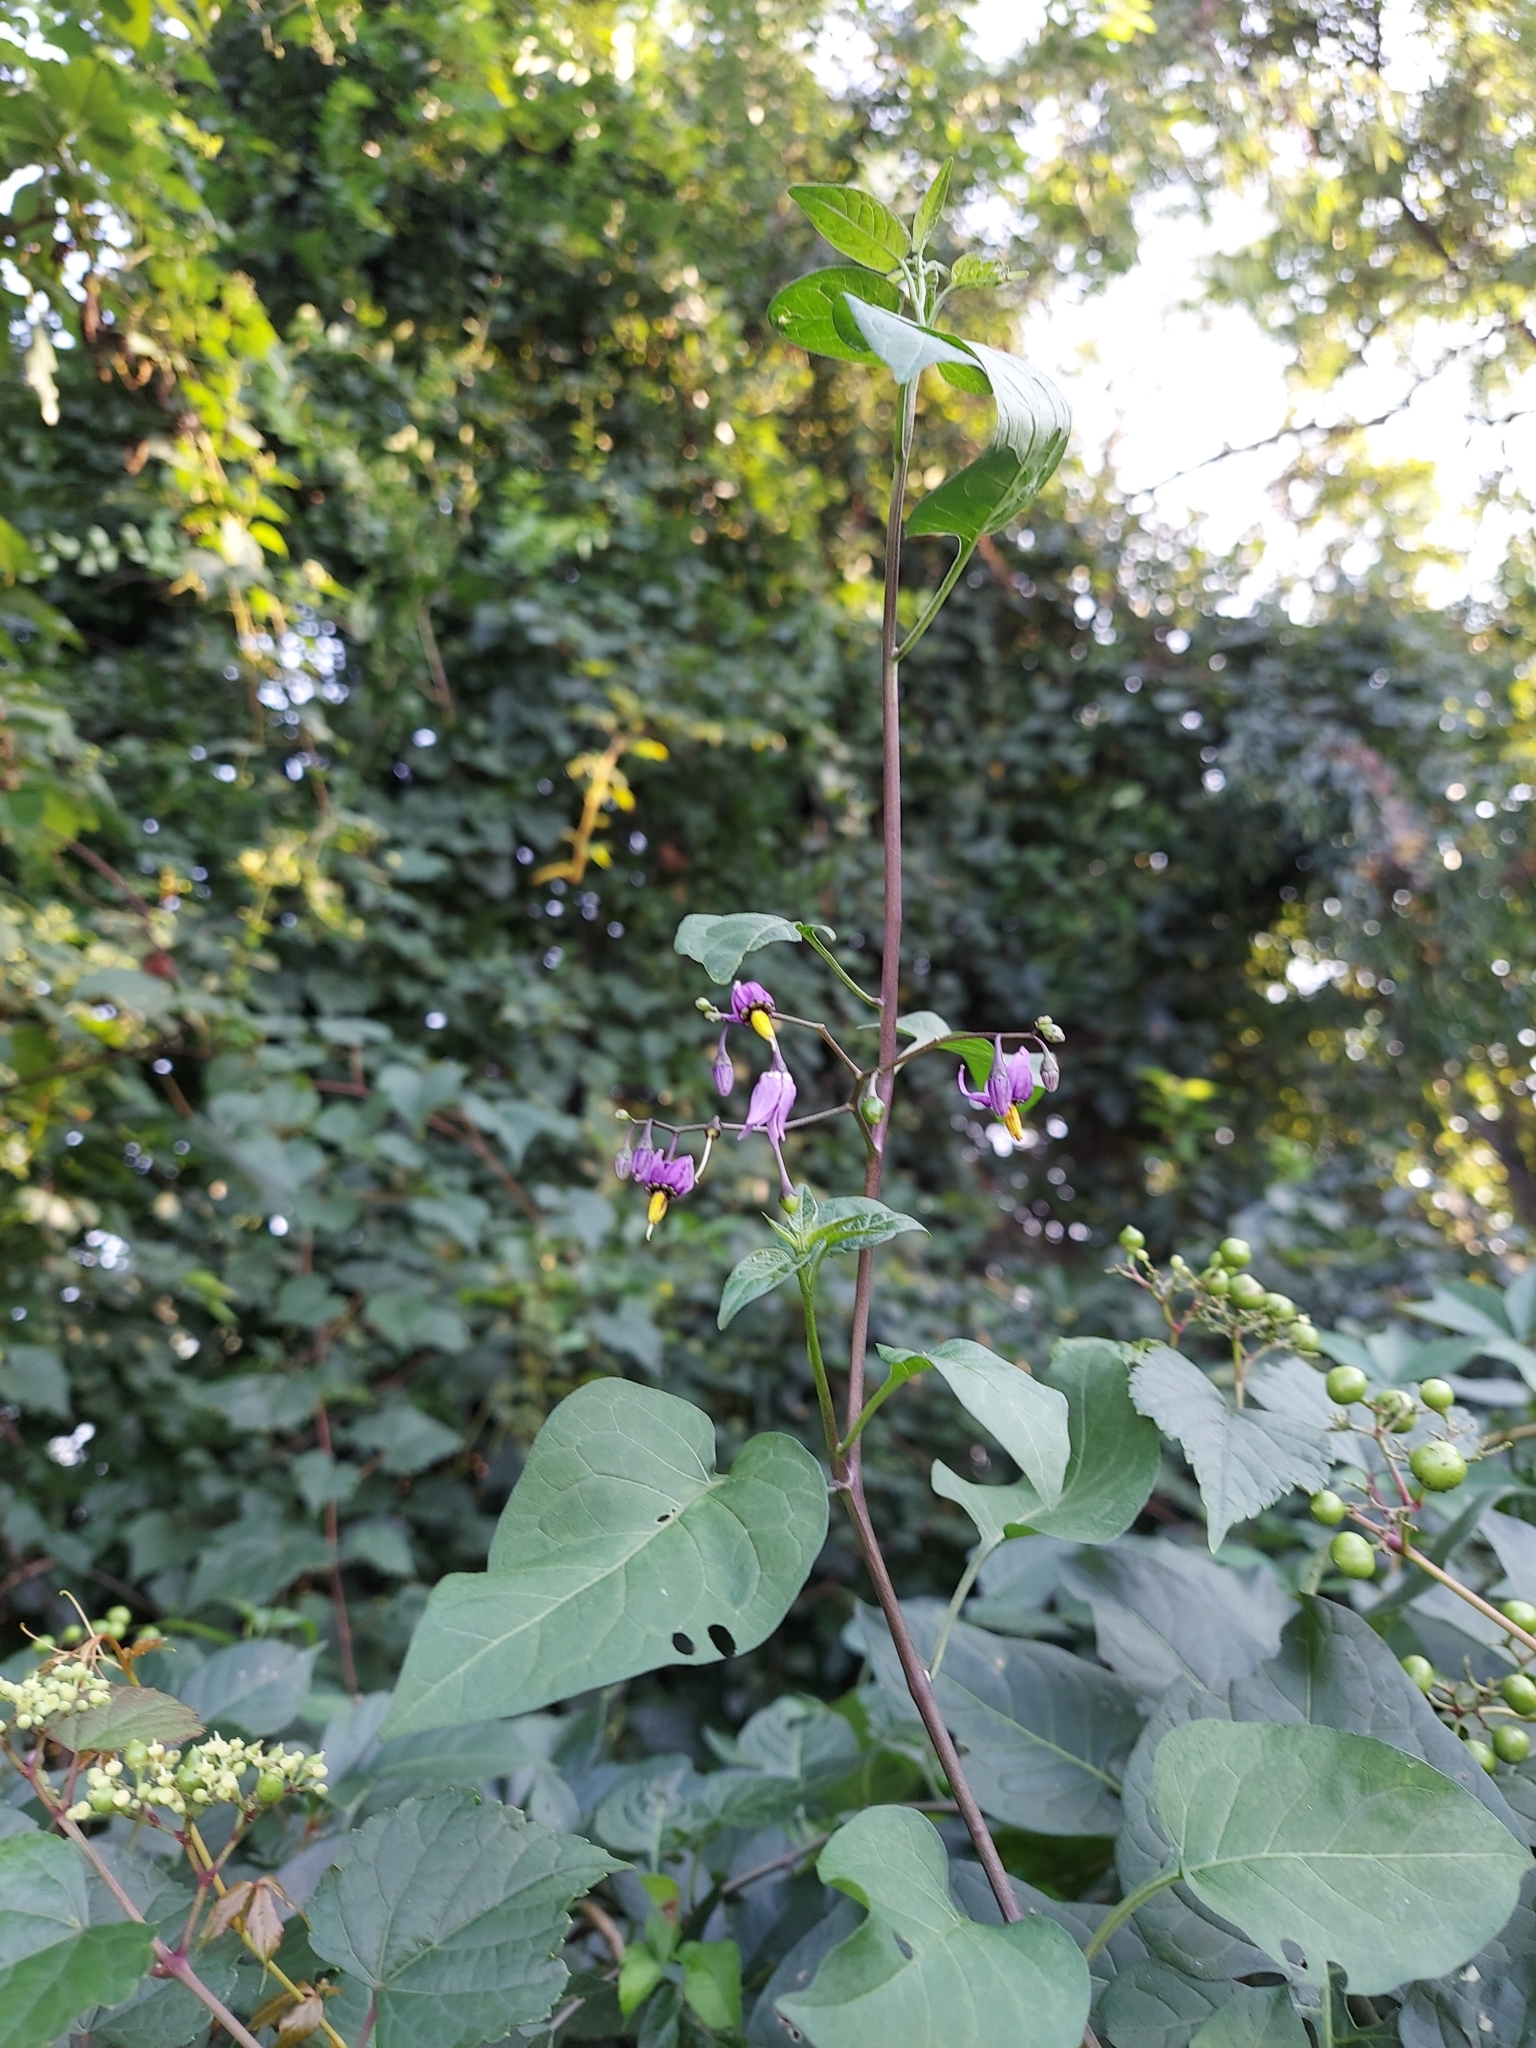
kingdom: Plantae
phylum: Tracheophyta
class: Magnoliopsida
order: Solanales
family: Solanaceae
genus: Solanum
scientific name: Solanum dulcamara
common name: Climbing nightshade
